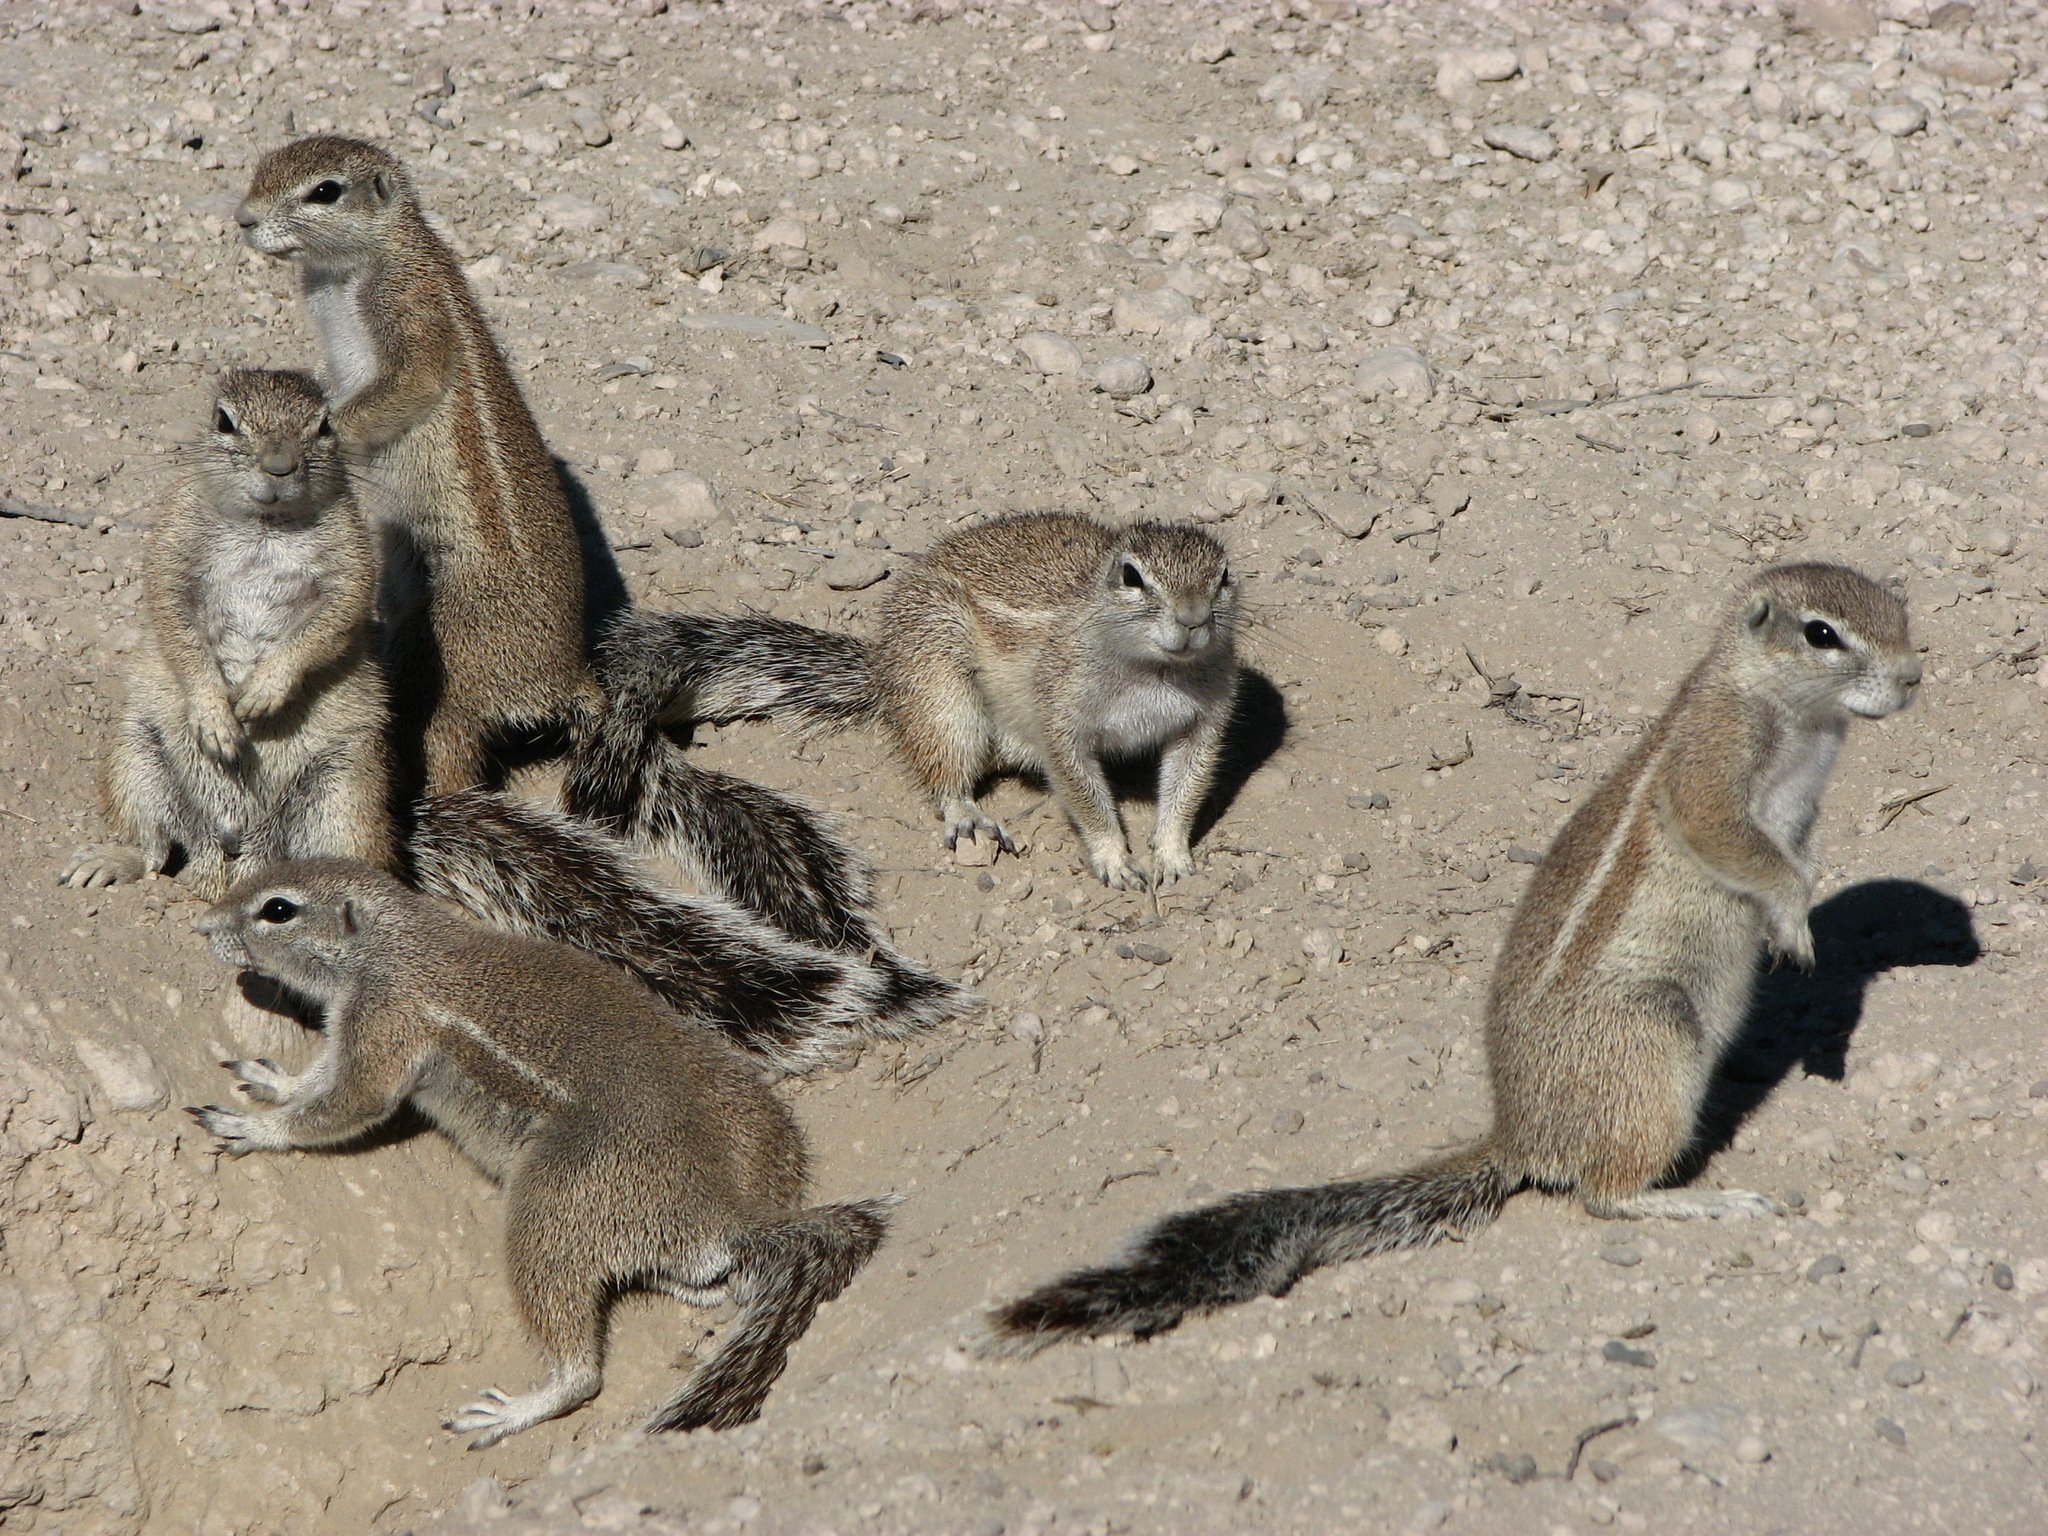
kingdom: Animalia
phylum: Chordata
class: Mammalia
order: Rodentia
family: Sciuridae
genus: Xerus
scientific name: Xerus inauris
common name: South african ground squirrel
